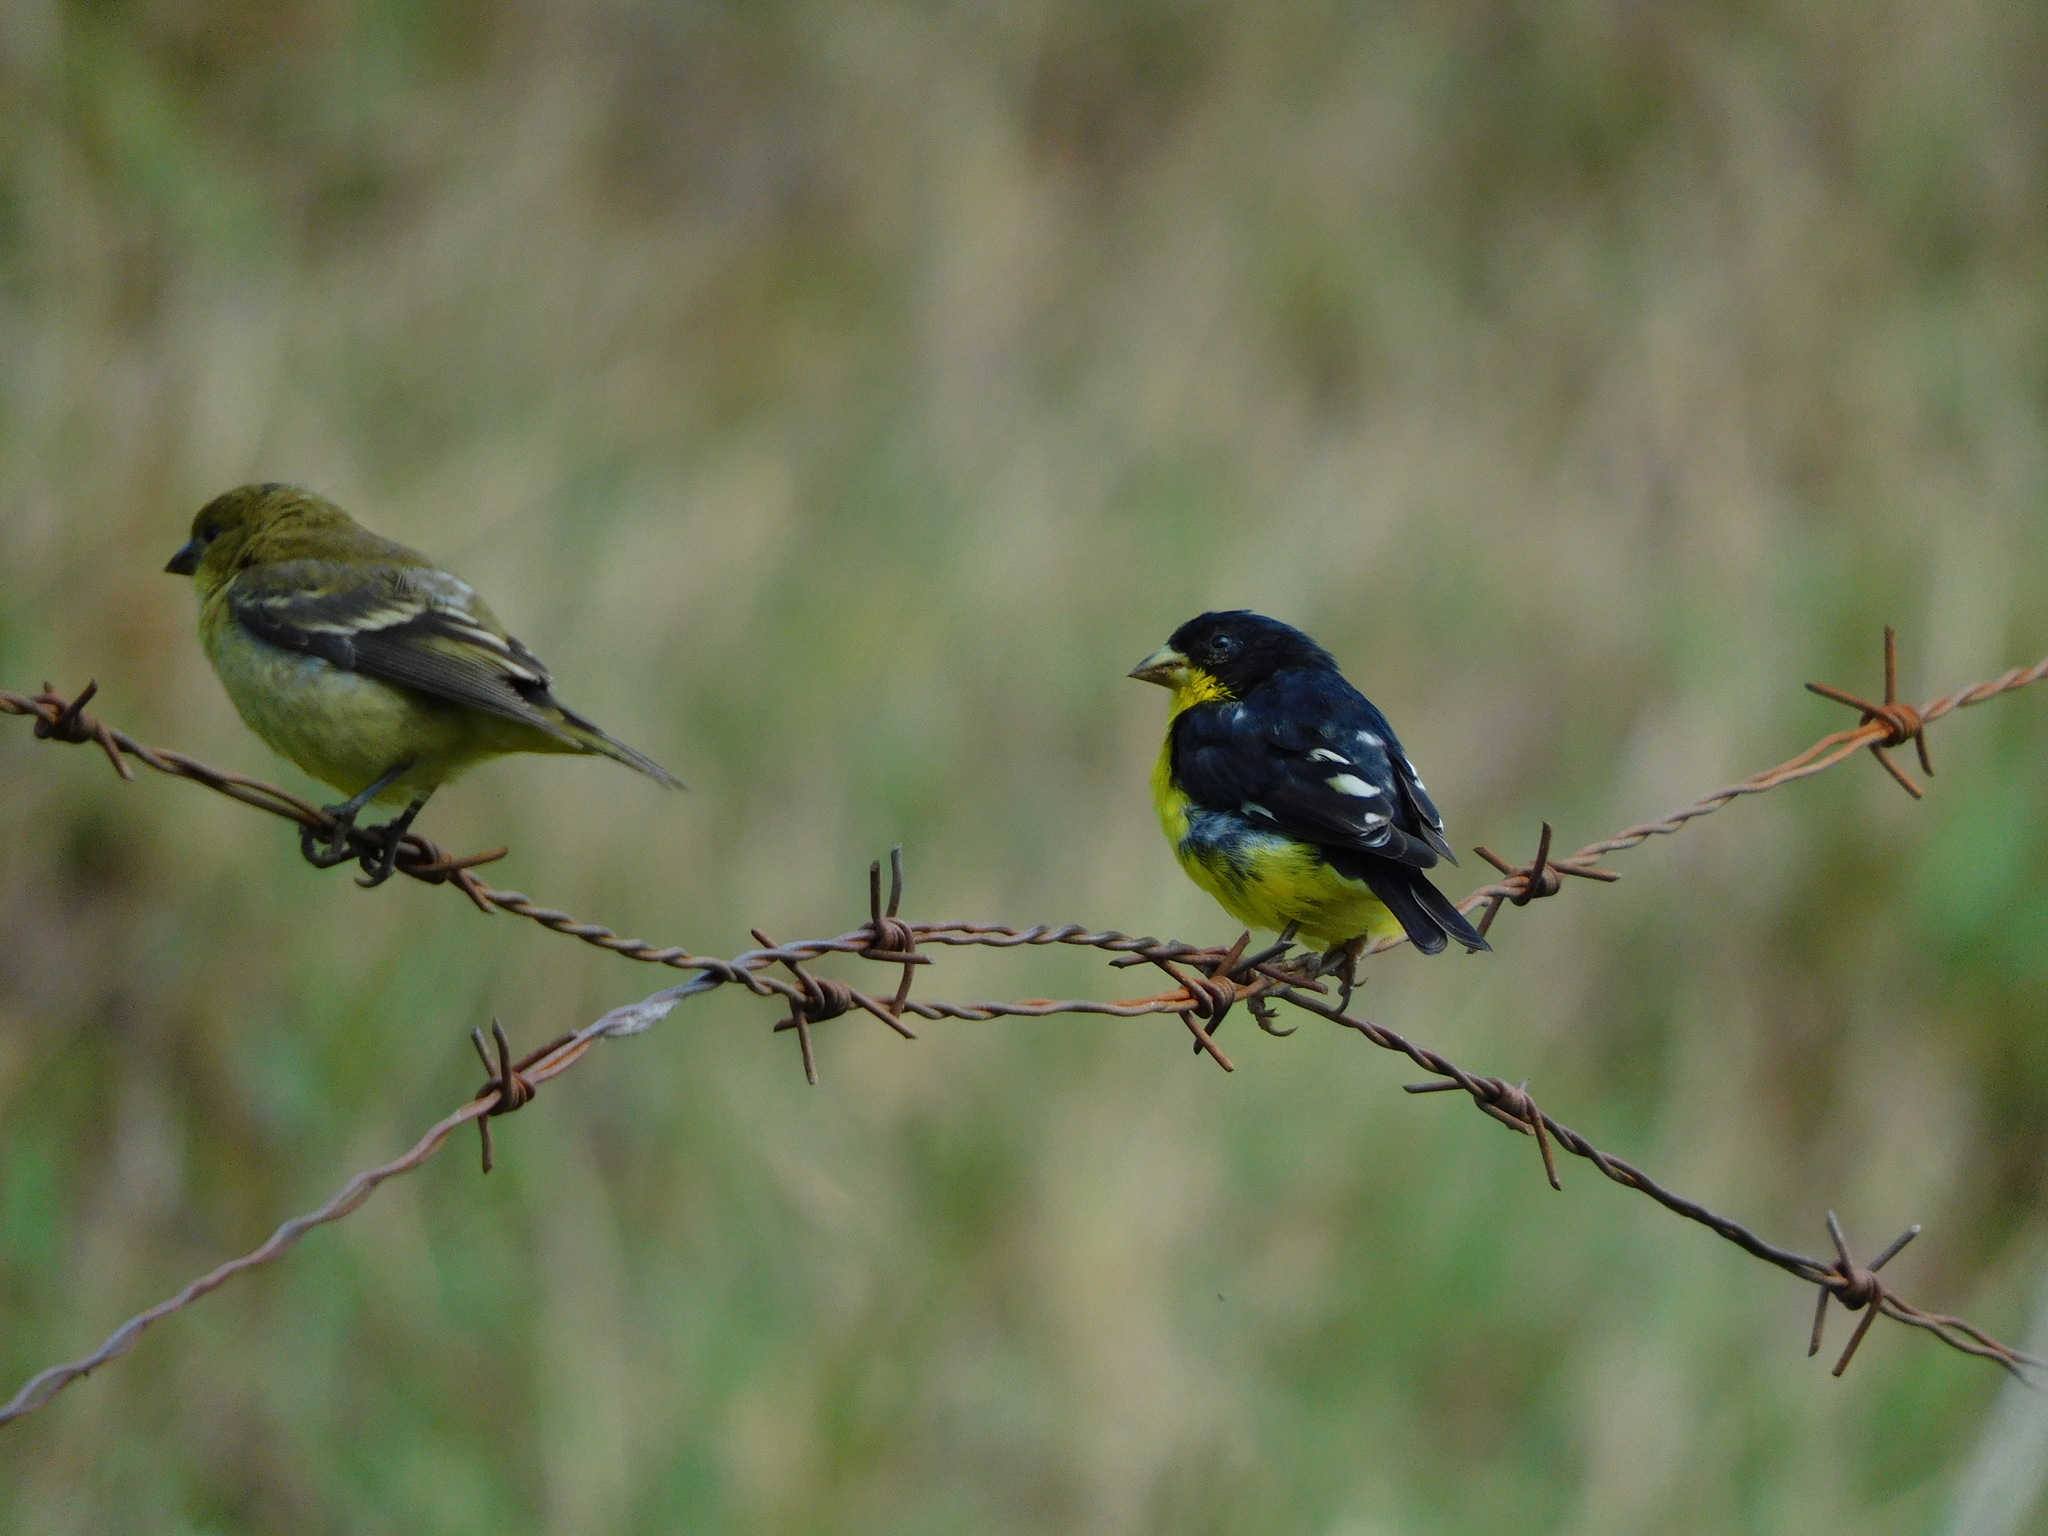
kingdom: Animalia
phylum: Chordata
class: Aves
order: Passeriformes
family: Fringillidae
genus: Spinus
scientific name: Spinus psaltria
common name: Lesser goldfinch
